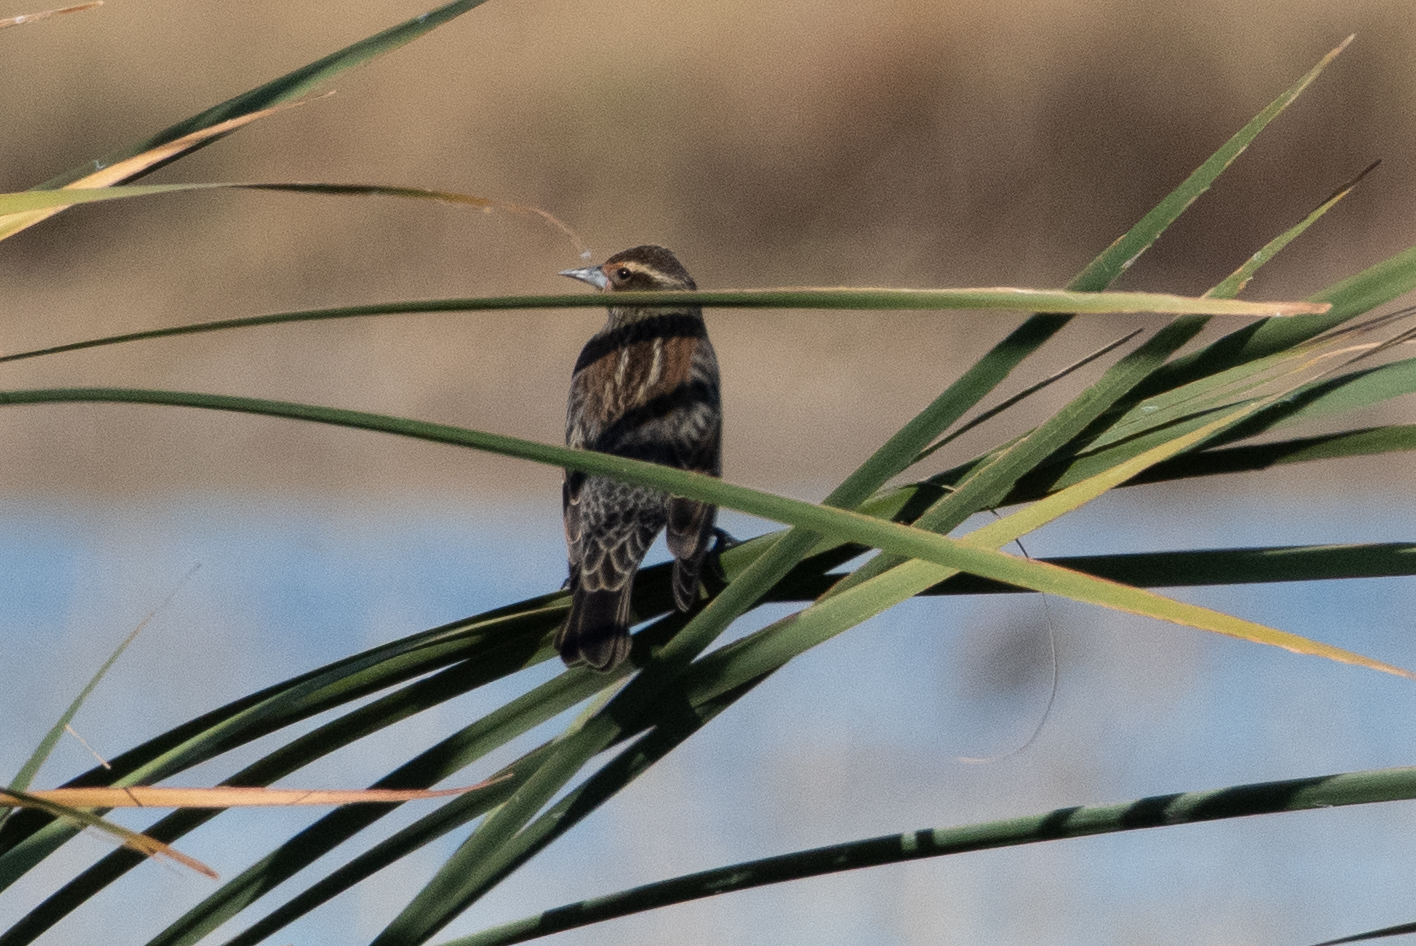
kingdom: Animalia
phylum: Chordata
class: Aves
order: Passeriformes
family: Icteridae
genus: Agelaius
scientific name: Agelaius phoeniceus
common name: Red-winged blackbird
